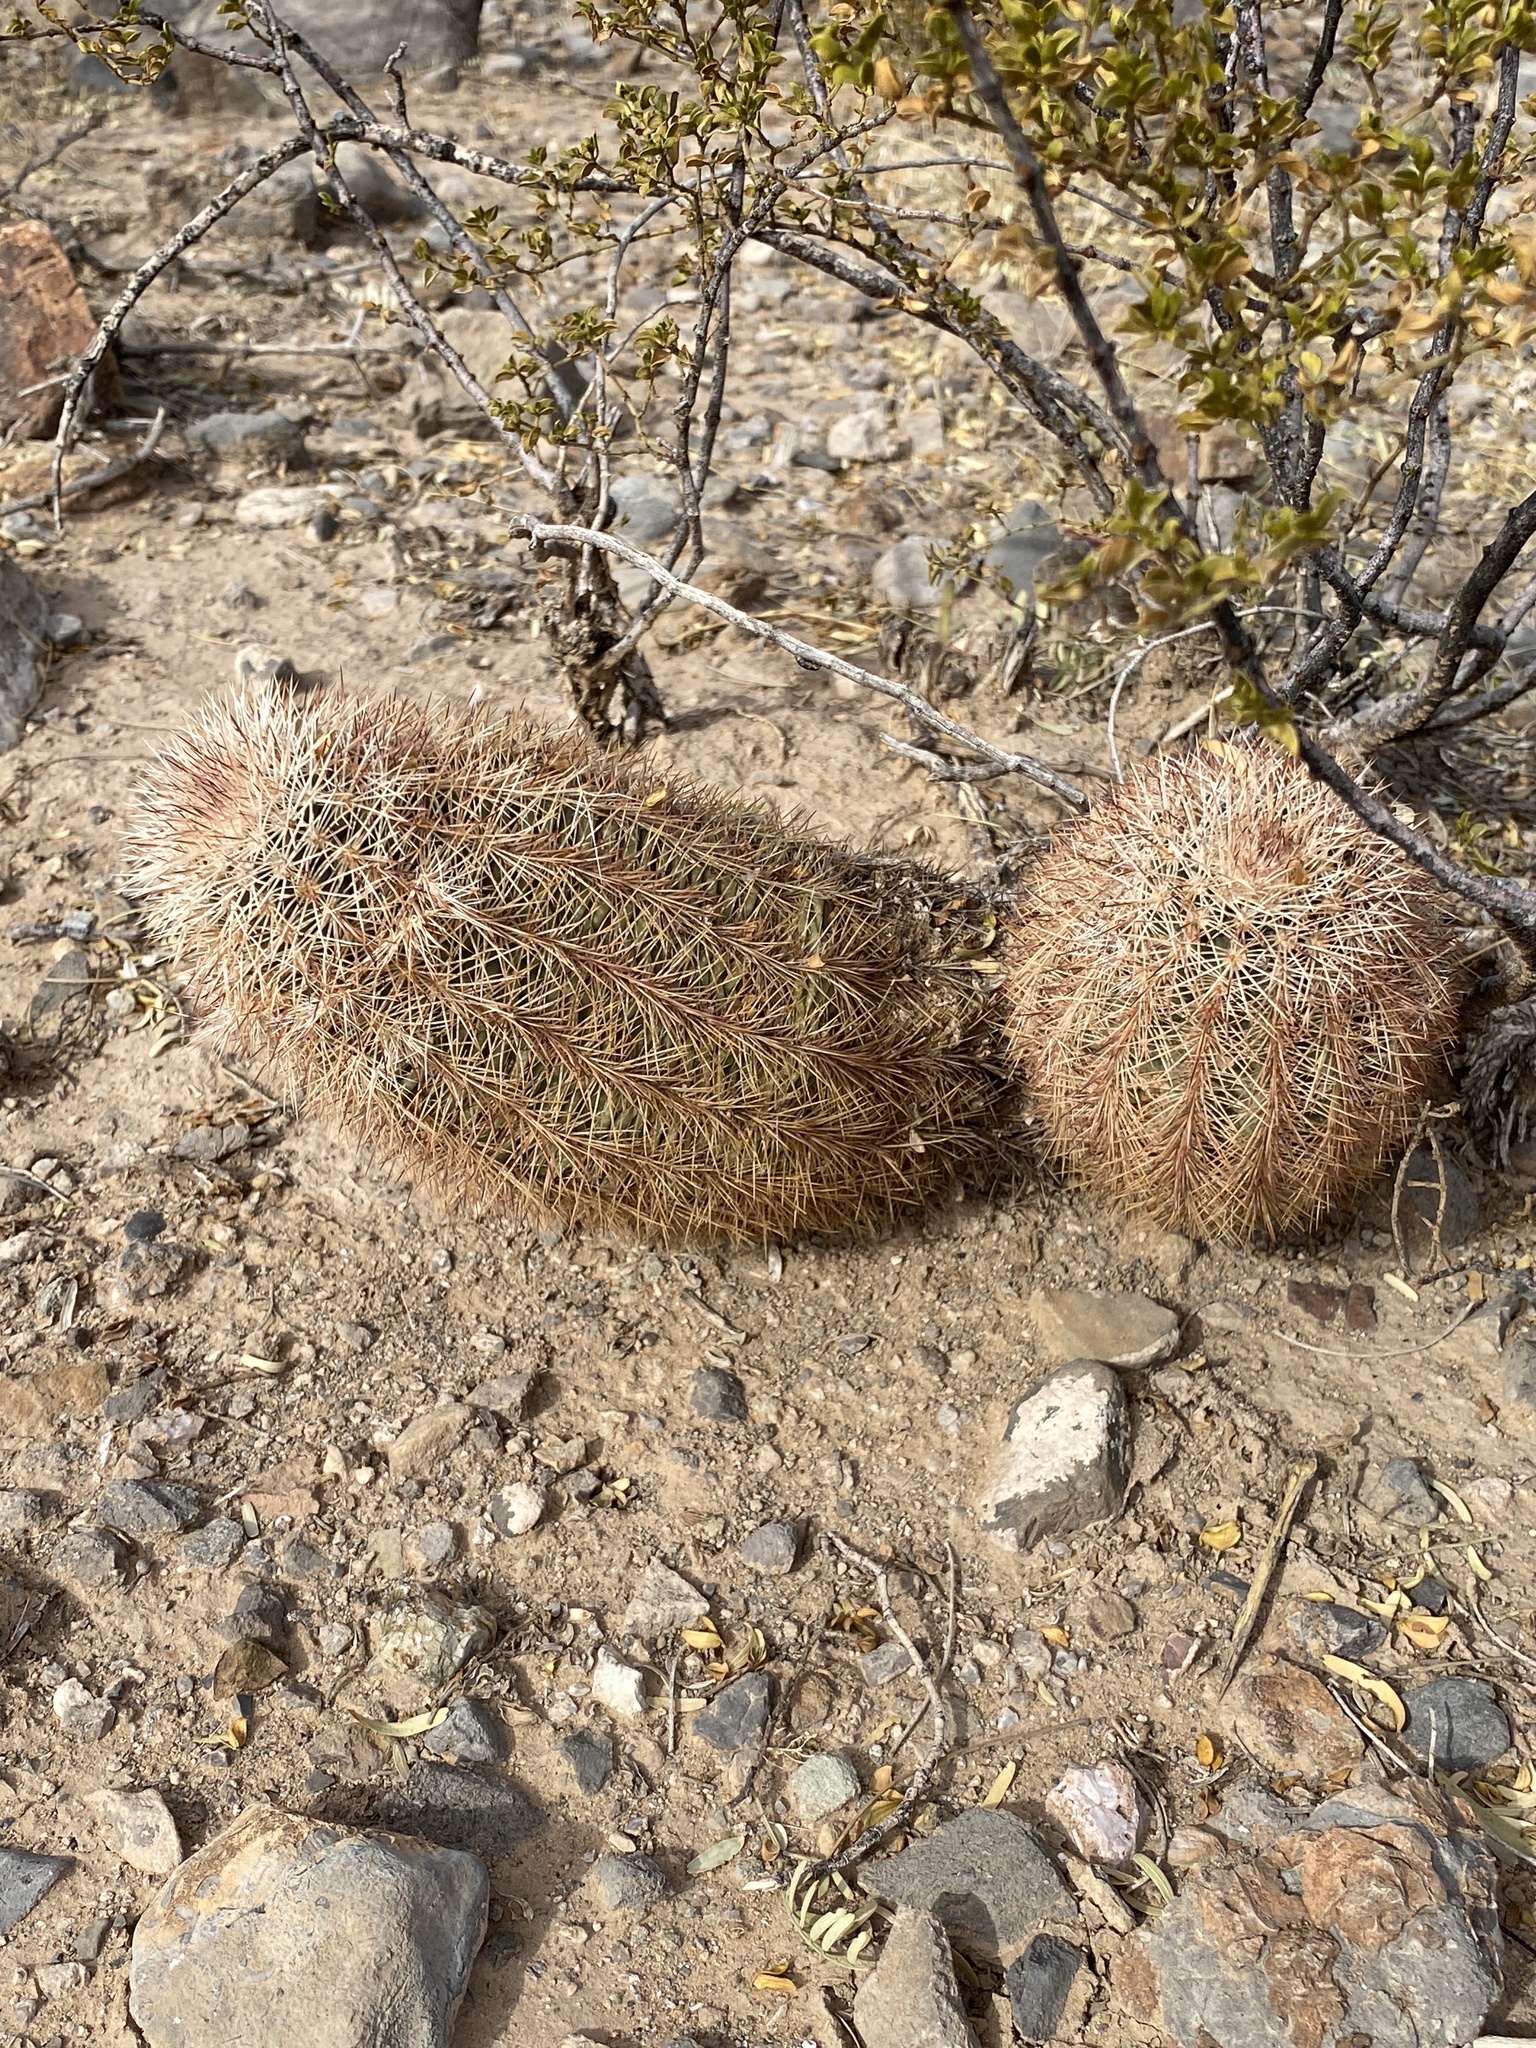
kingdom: Plantae
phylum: Tracheophyta
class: Magnoliopsida
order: Caryophyllales
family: Cactaceae
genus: Echinocereus
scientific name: Echinocereus dasyacanthus
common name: Spiny hedgehog cactus
